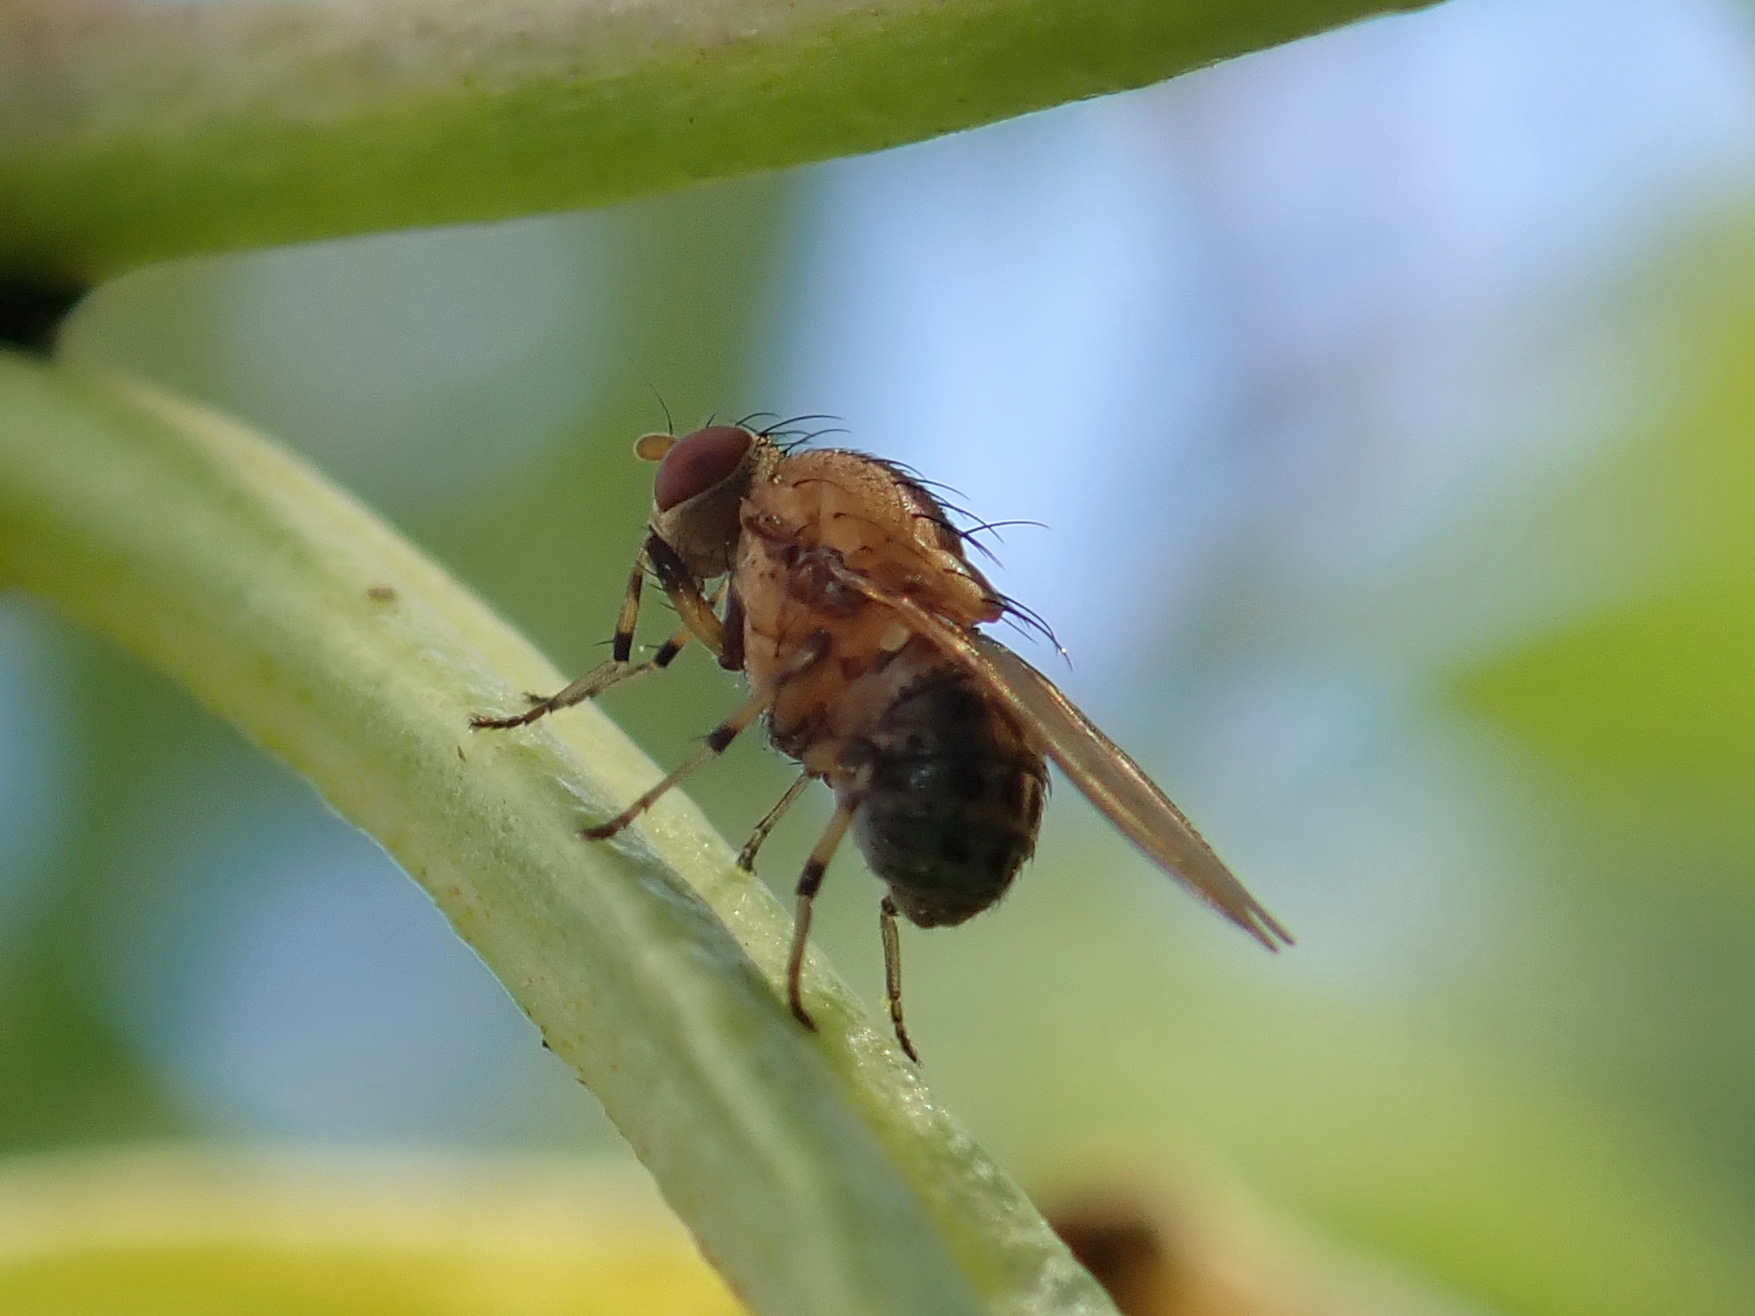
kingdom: Animalia
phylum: Arthropoda
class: Insecta
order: Diptera
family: Lauxaniidae
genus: Sapromyza
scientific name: Sapromyza neozelandica
